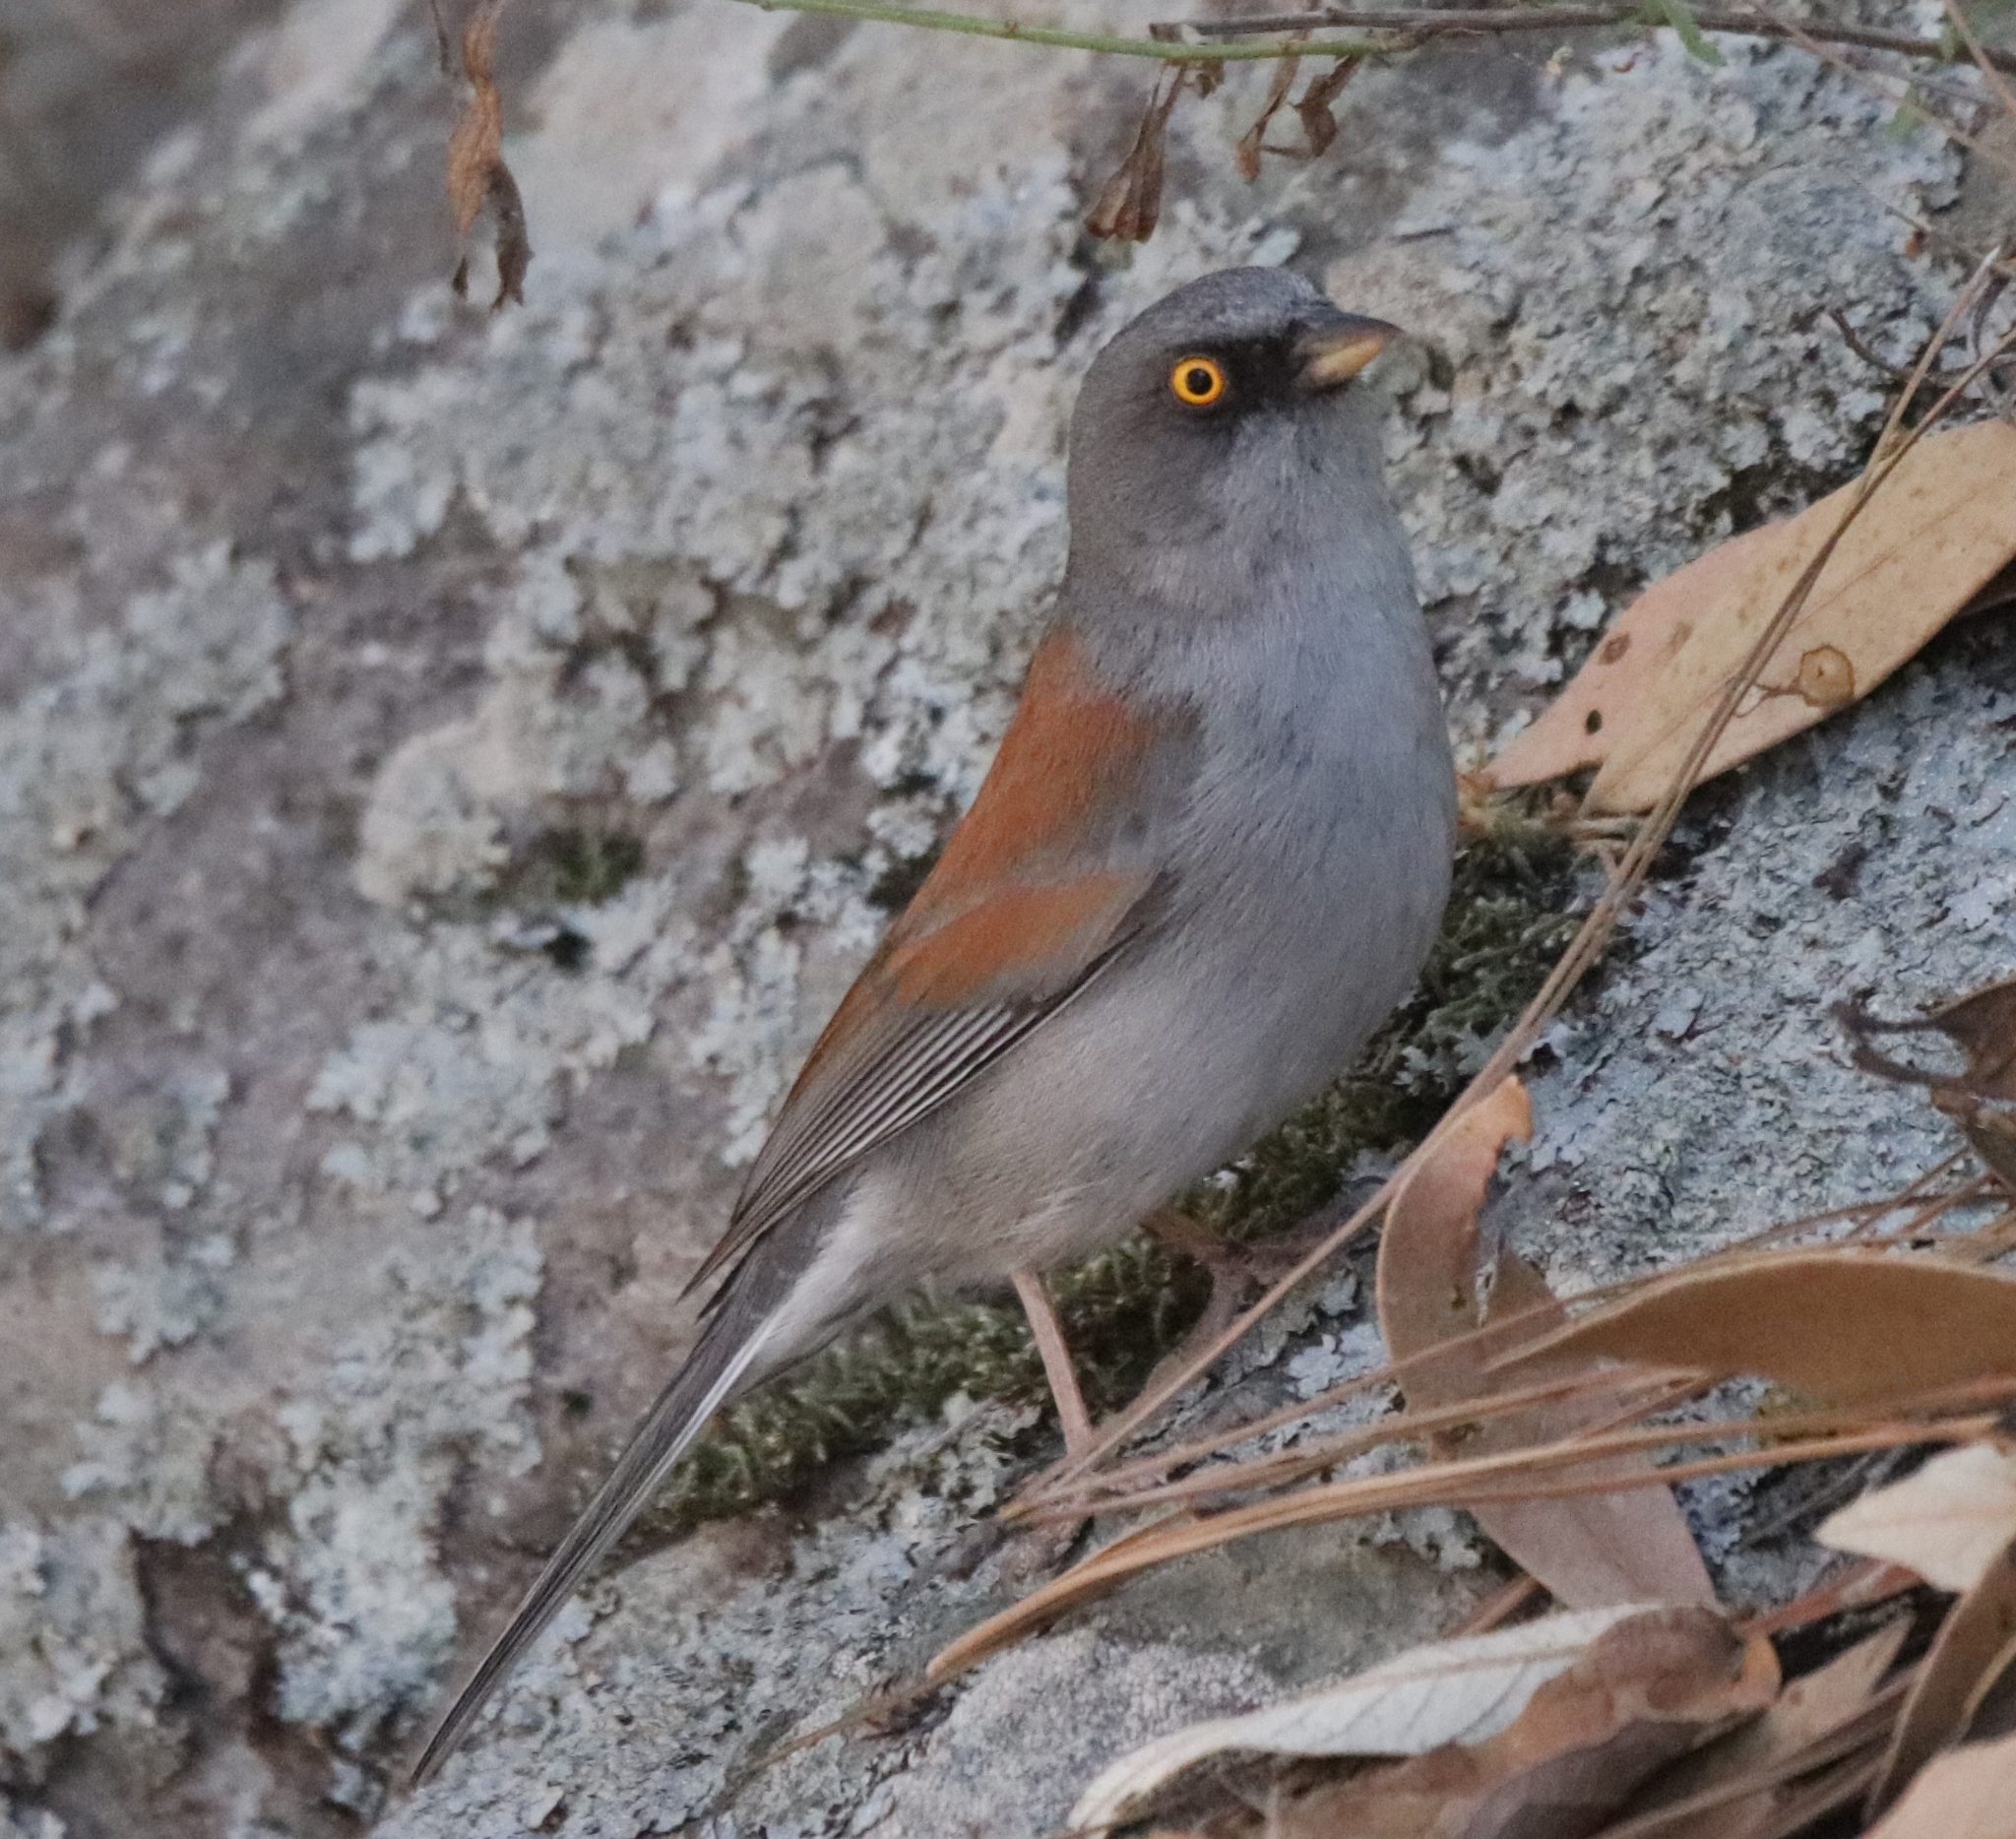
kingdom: Animalia
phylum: Chordata
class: Aves
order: Passeriformes
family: Passerellidae
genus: Junco
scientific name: Junco phaeonotus
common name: Yellow-eyed junco
